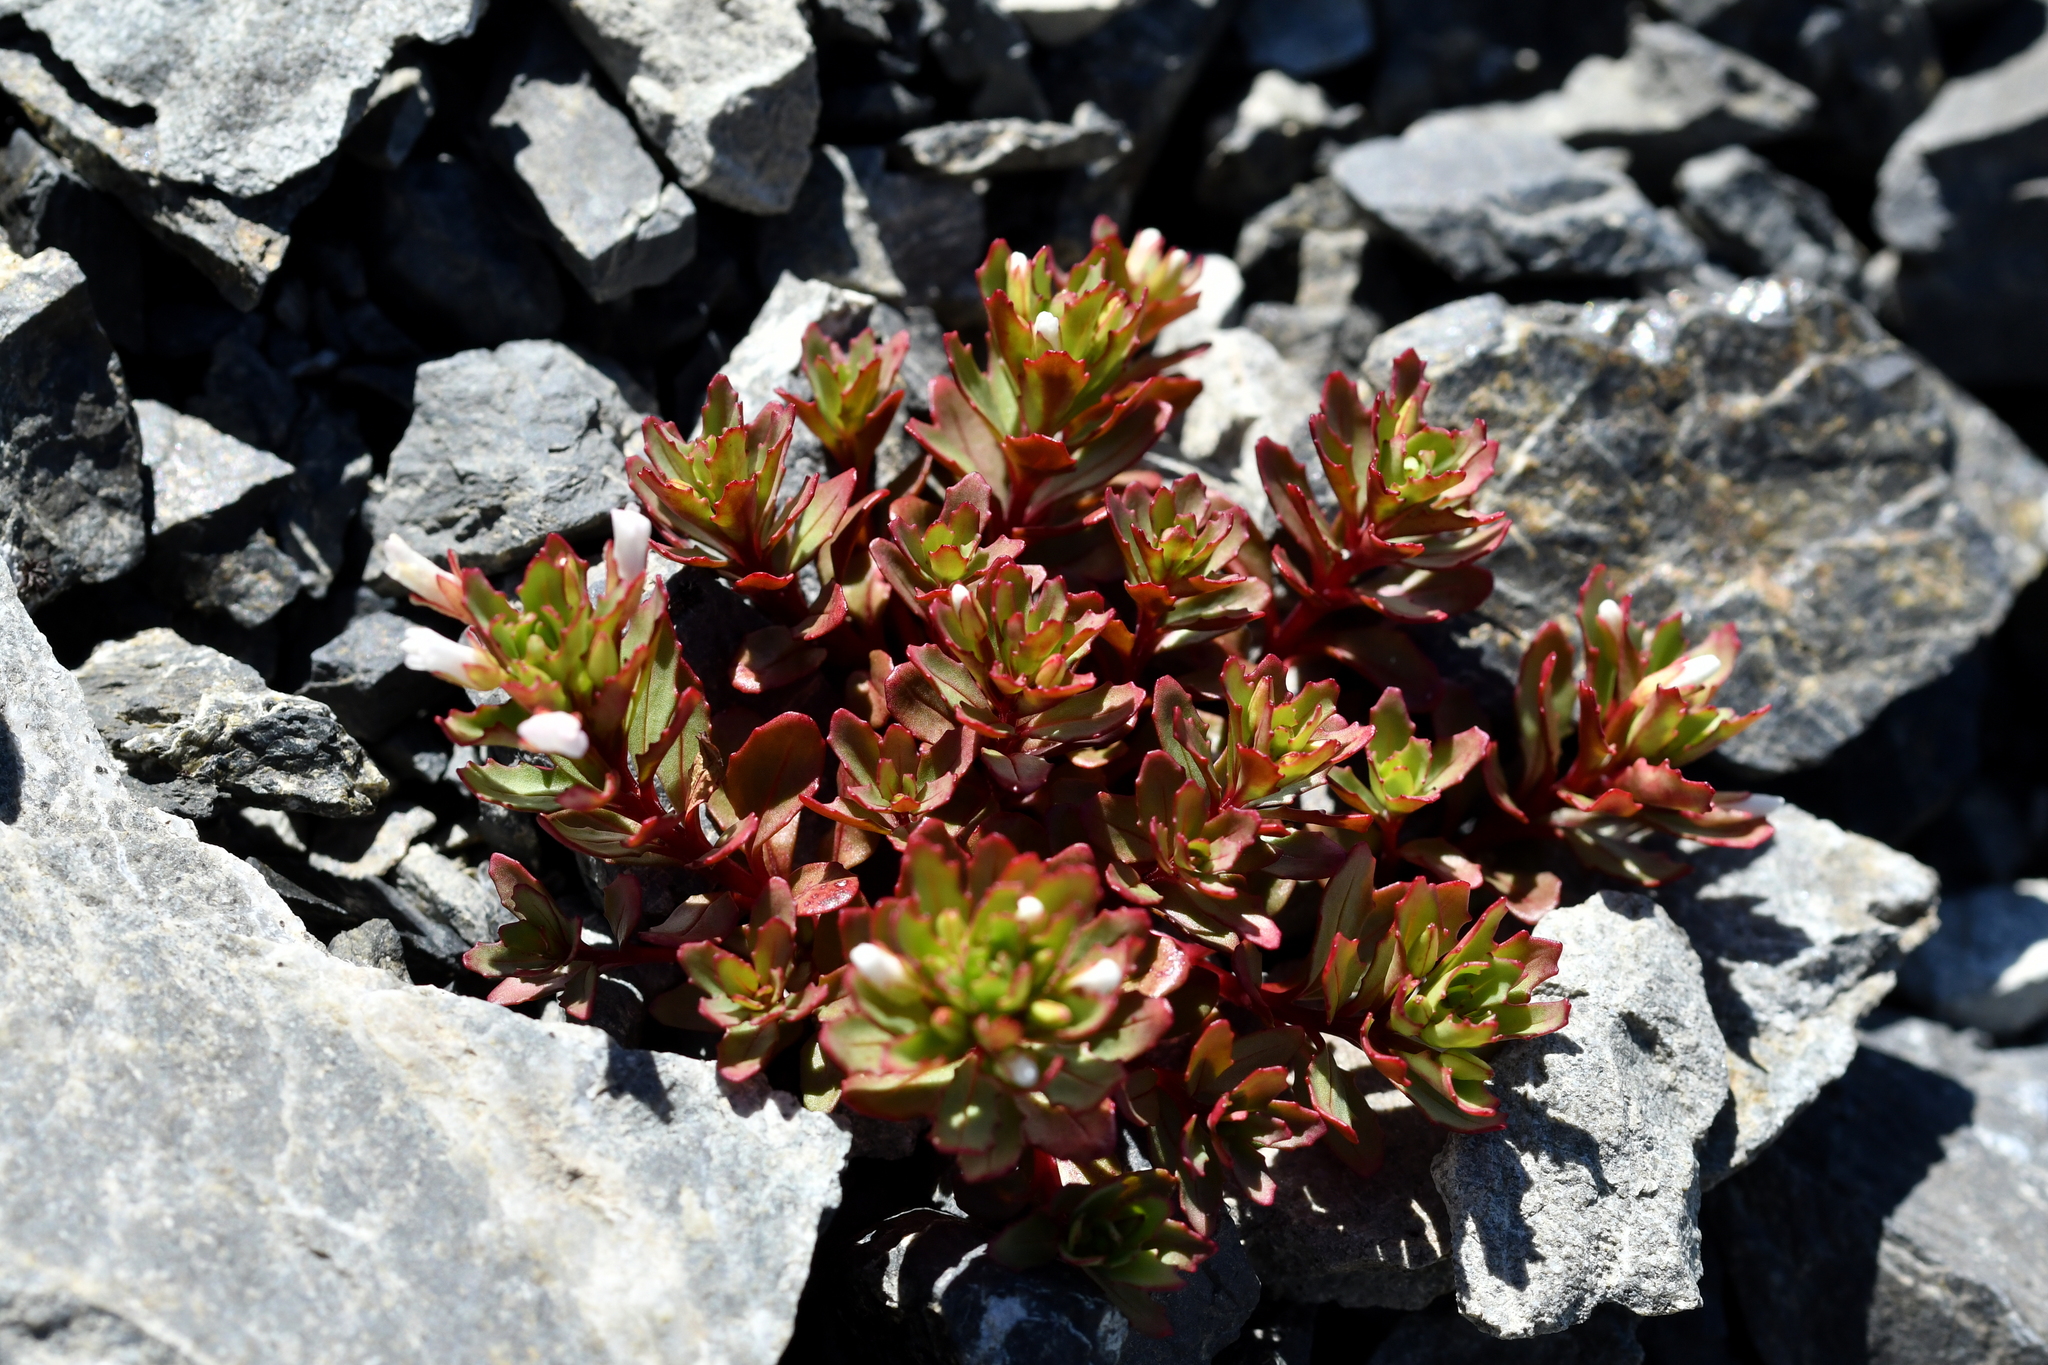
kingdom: Plantae
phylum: Tracheophyta
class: Magnoliopsida
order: Myrtales
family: Onagraceae
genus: Epilobium
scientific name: Epilobium pycnostachyum
